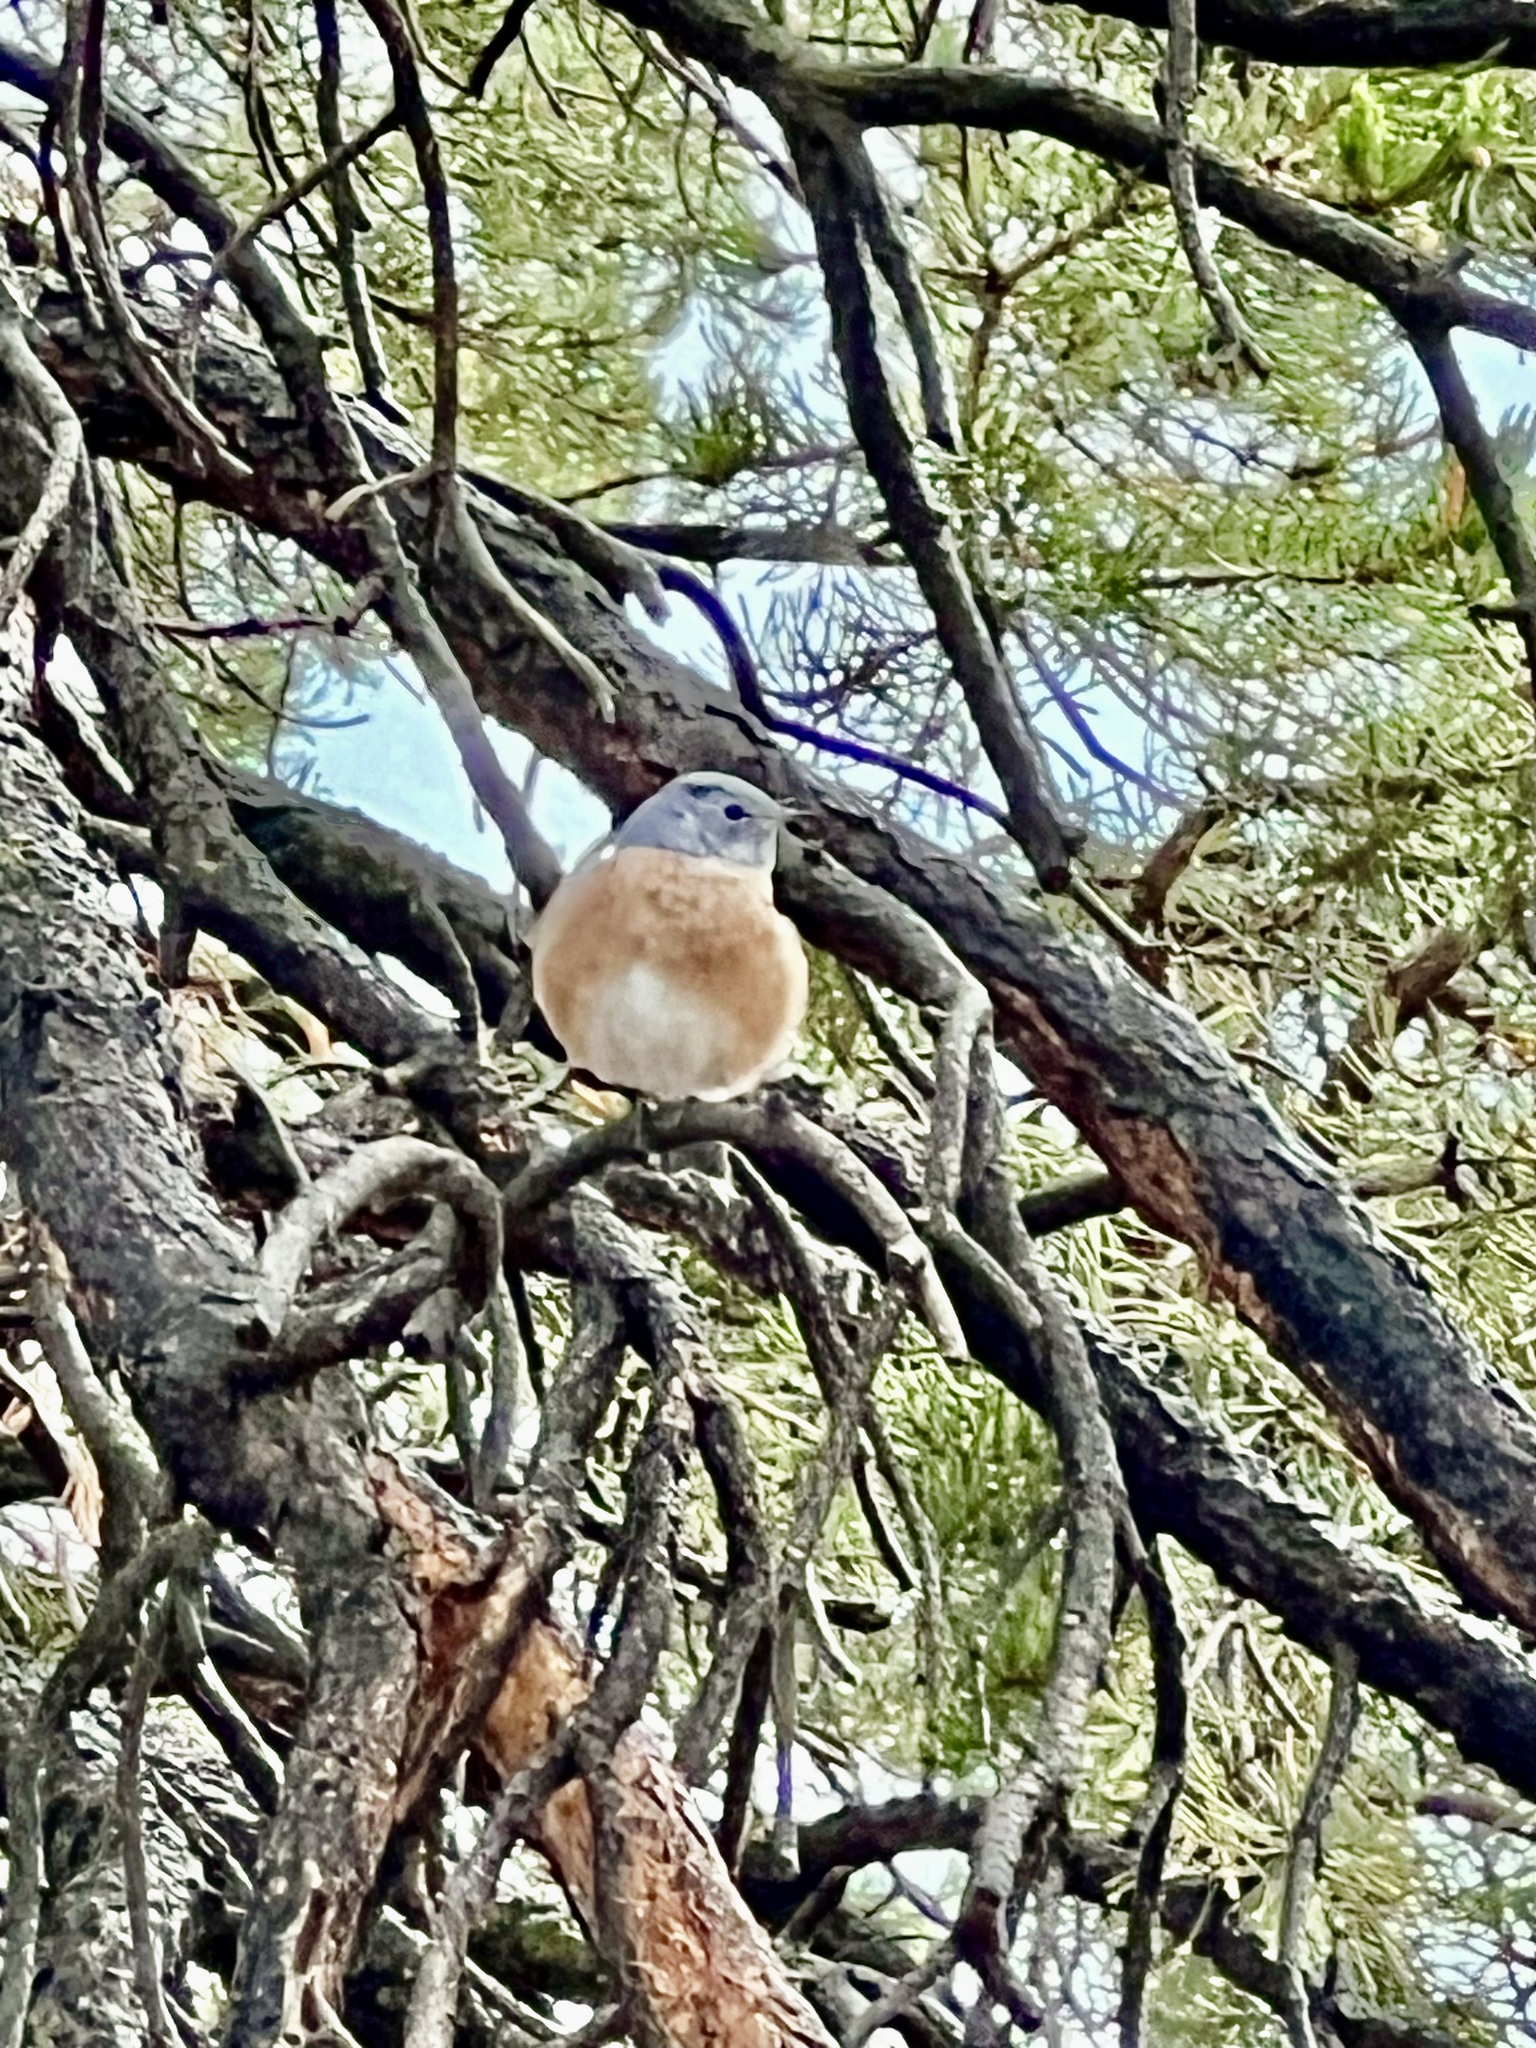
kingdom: Animalia
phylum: Chordata
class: Aves
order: Passeriformes
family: Turdidae
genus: Sialia
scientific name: Sialia mexicana
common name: Western bluebird
